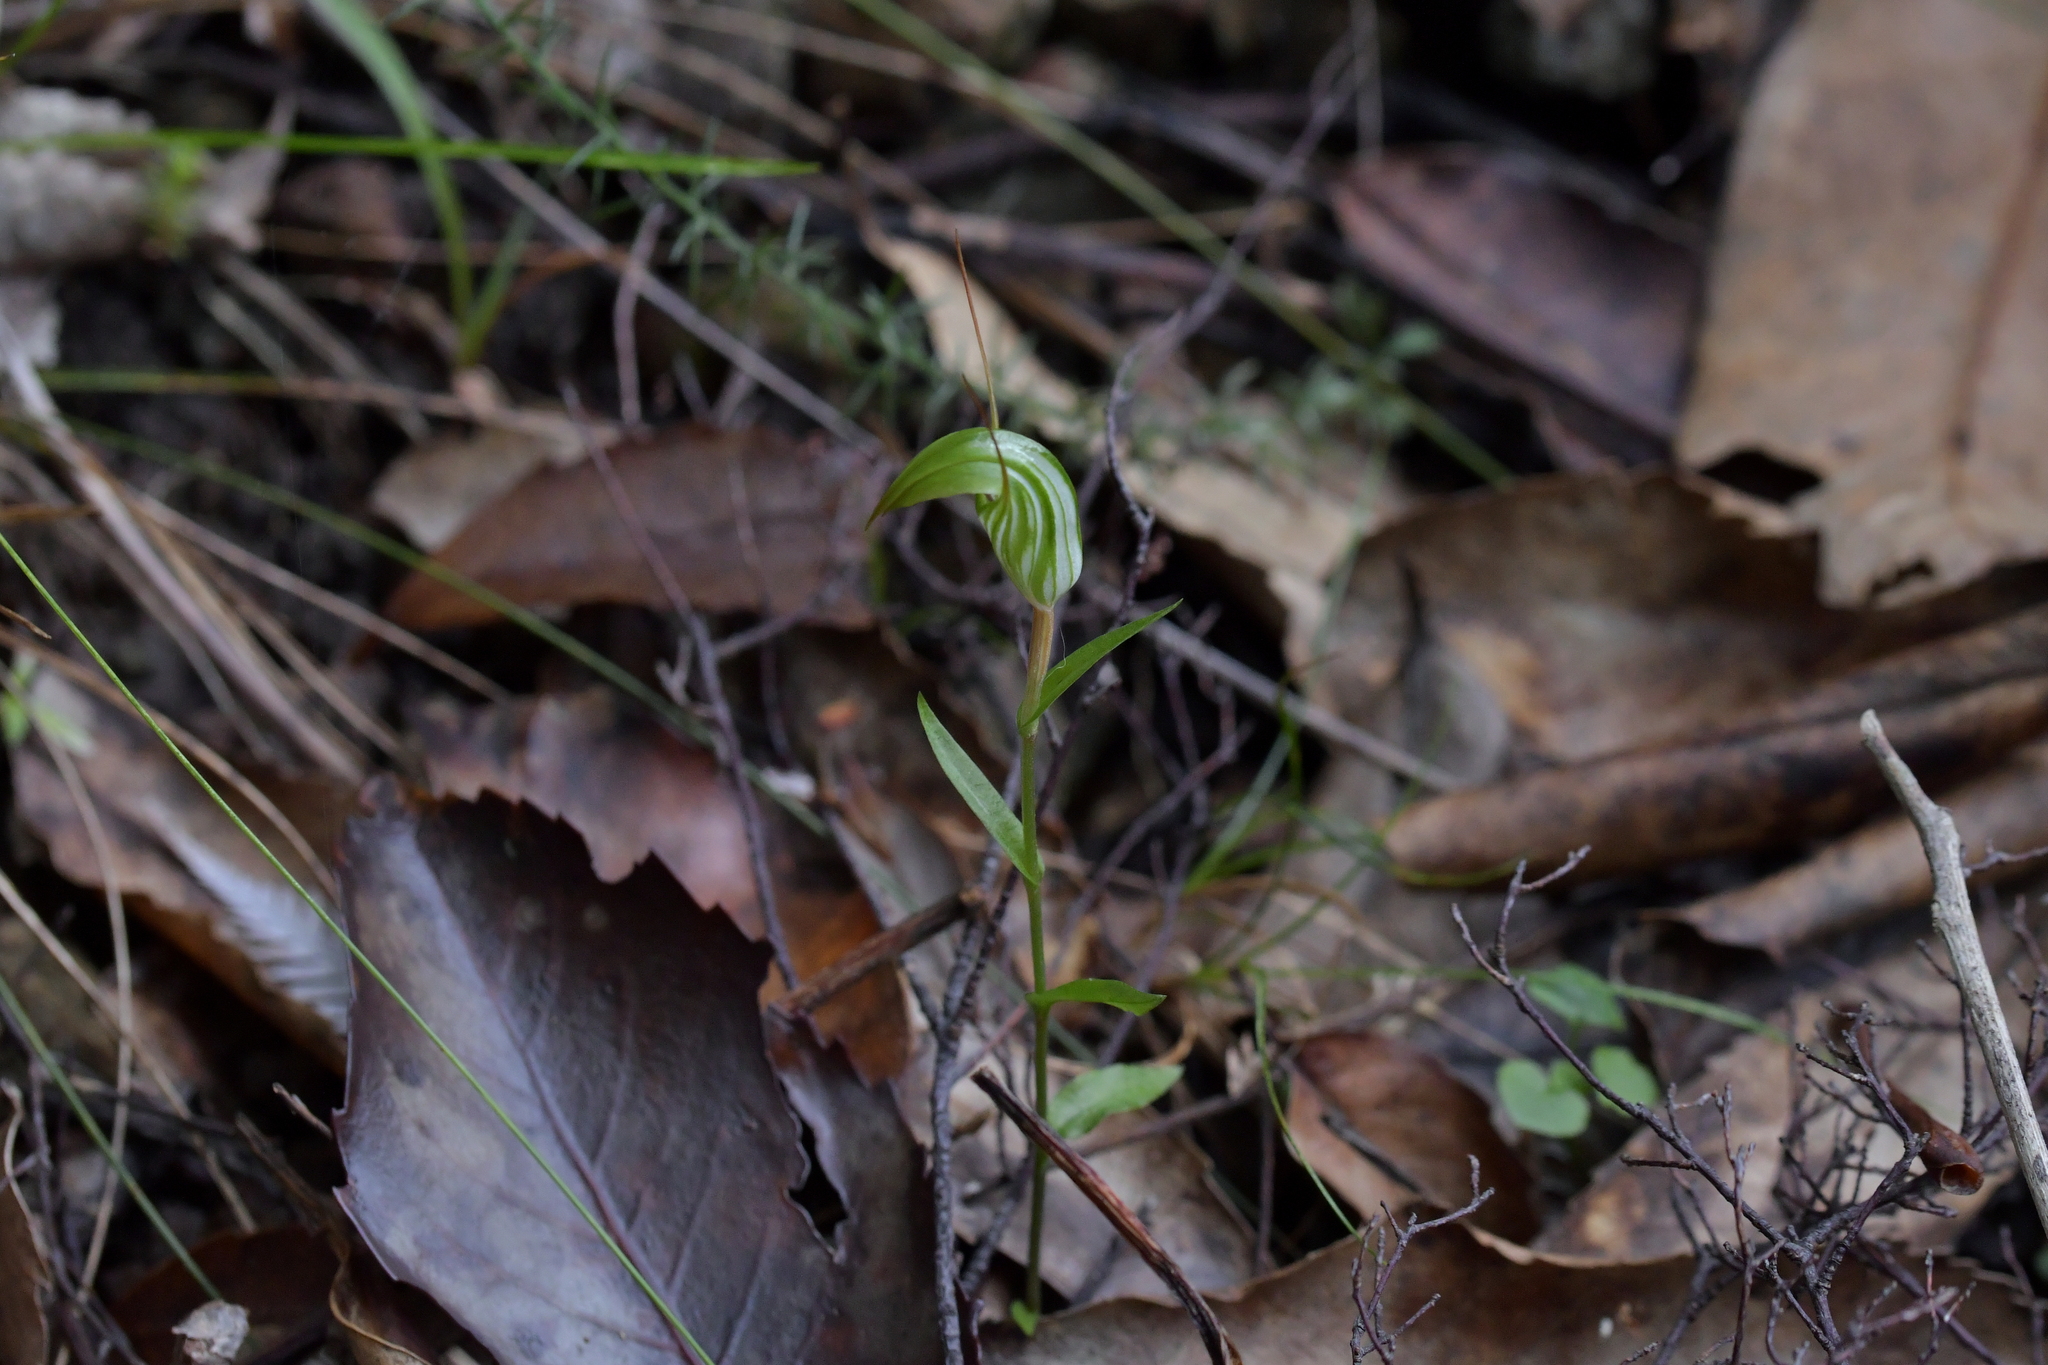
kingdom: Plantae
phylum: Tracheophyta
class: Liliopsida
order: Asparagales
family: Orchidaceae
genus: Pterostylis
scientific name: Pterostylis alobula
